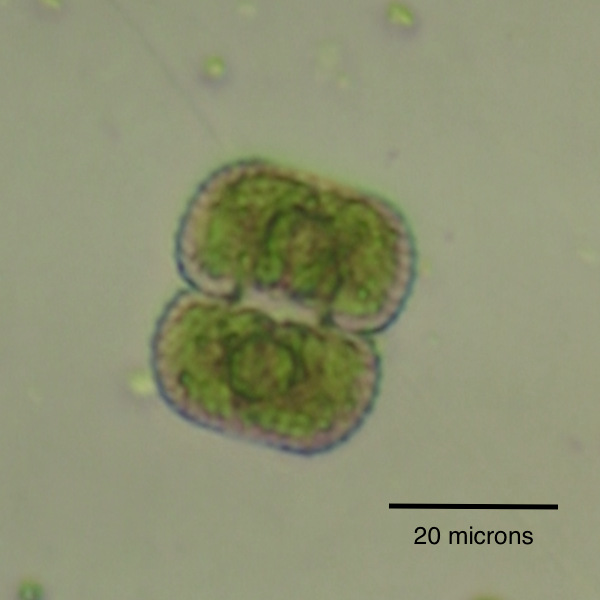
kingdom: Plantae
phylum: Charophyta
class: Conjugatophyceae
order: Desmidiales
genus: Cosmarium
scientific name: Cosmarium anisochondrum
